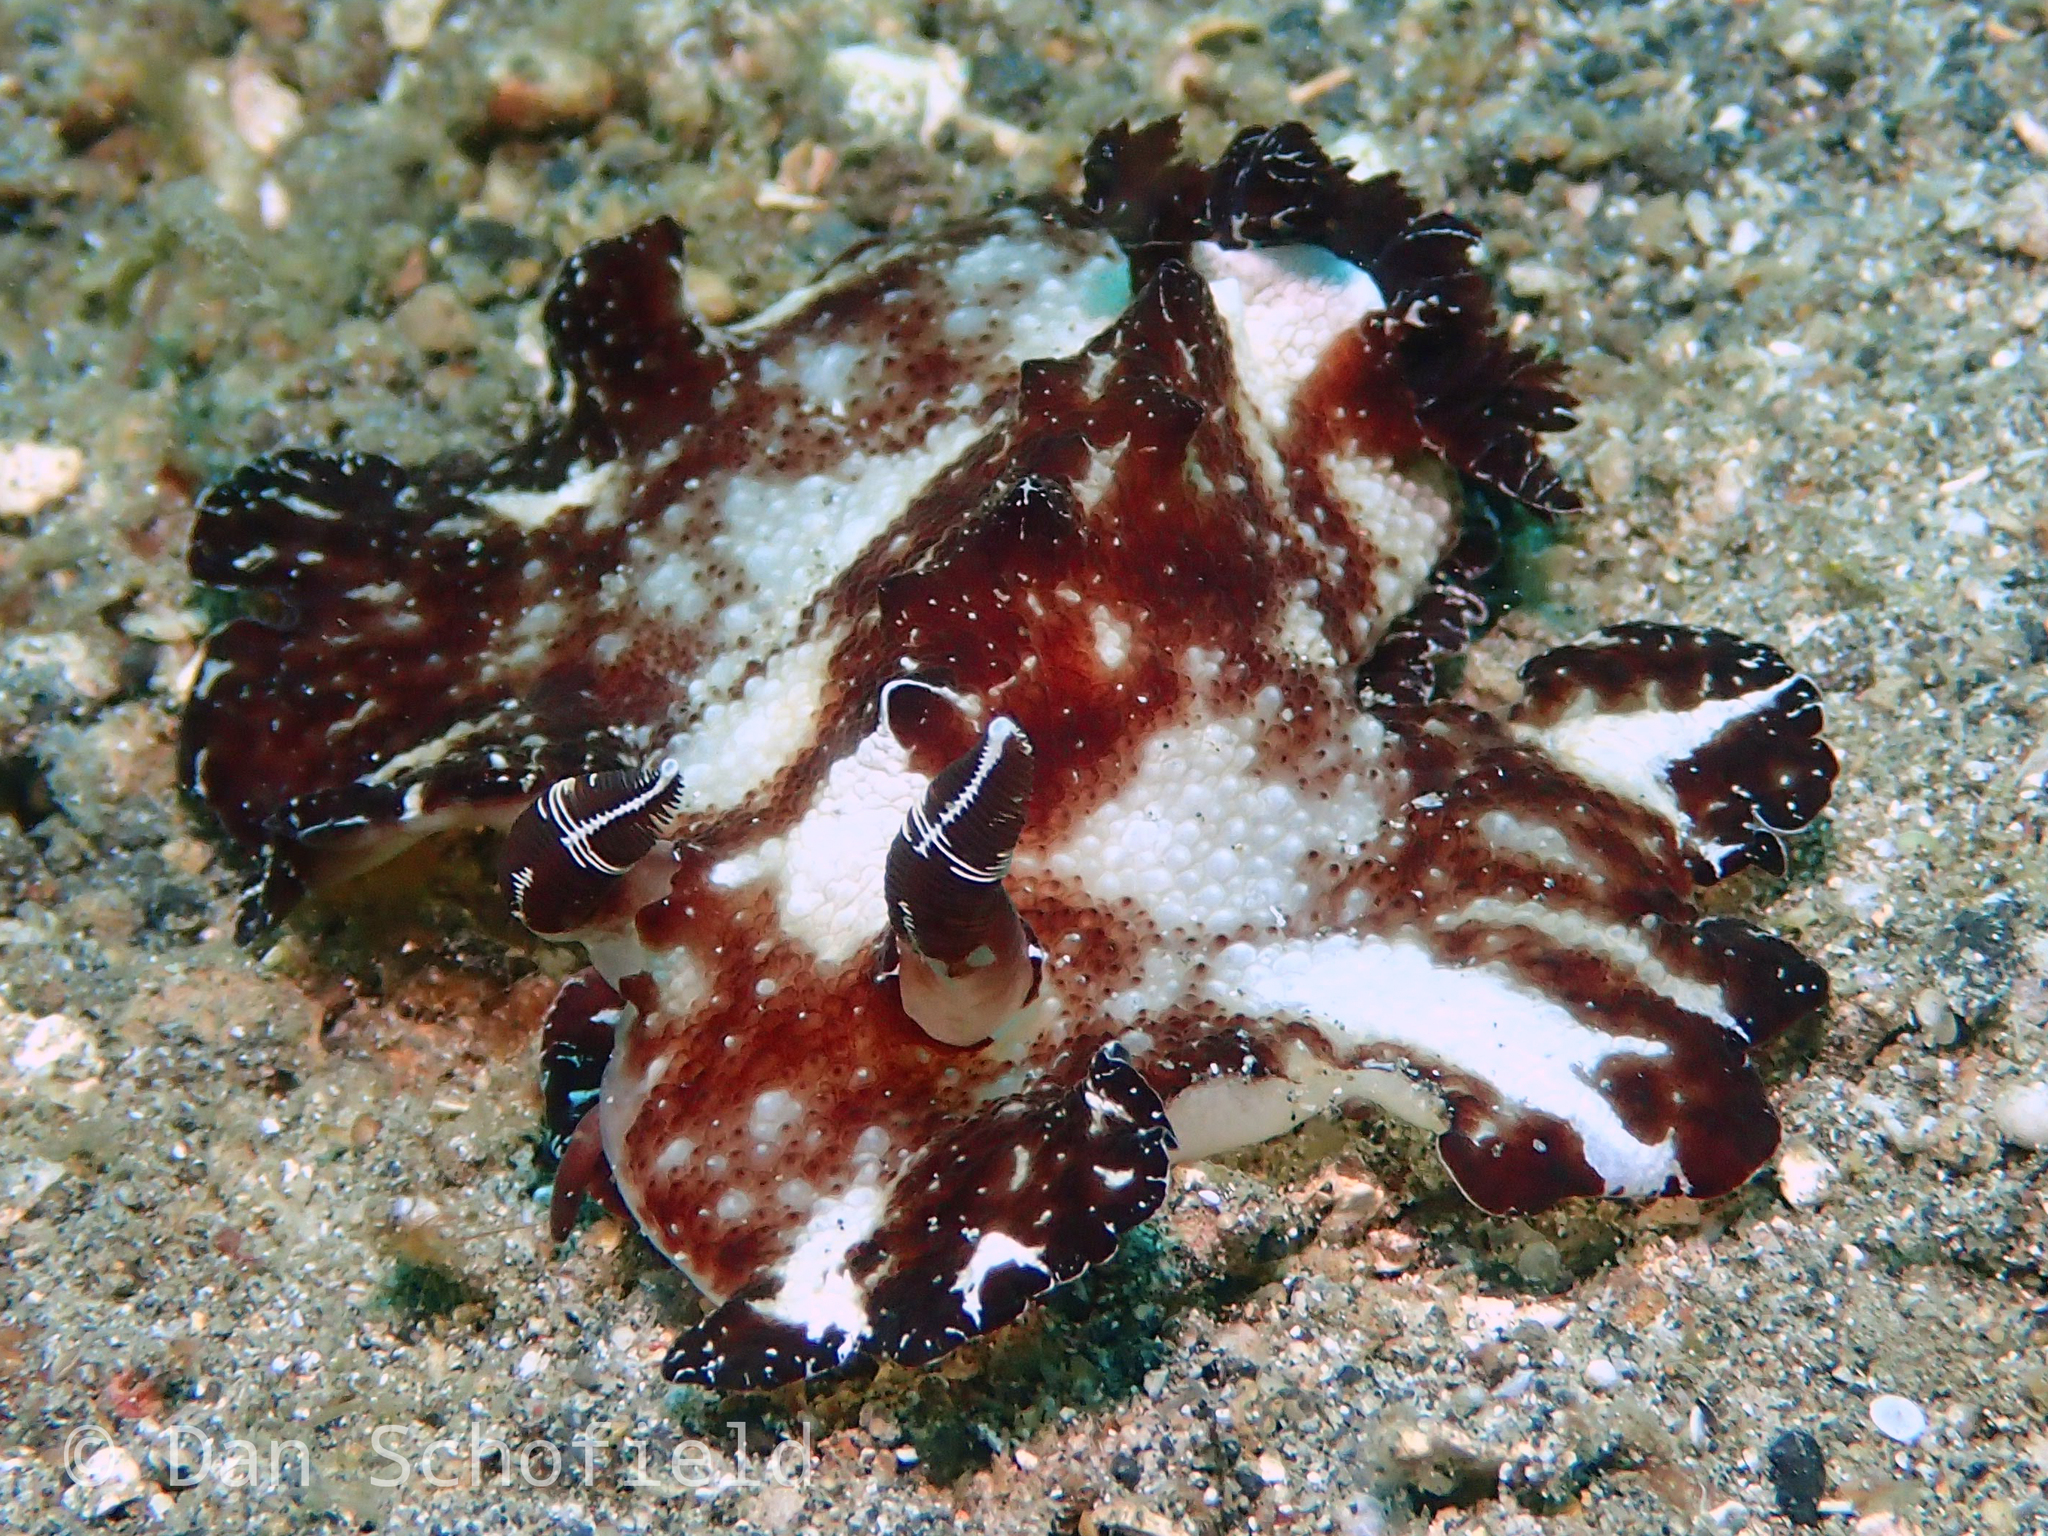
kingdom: Animalia
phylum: Mollusca
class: Gastropoda
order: Nudibranchia
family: Discodorididae
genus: Discodoris
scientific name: Discodoris boholiensis
